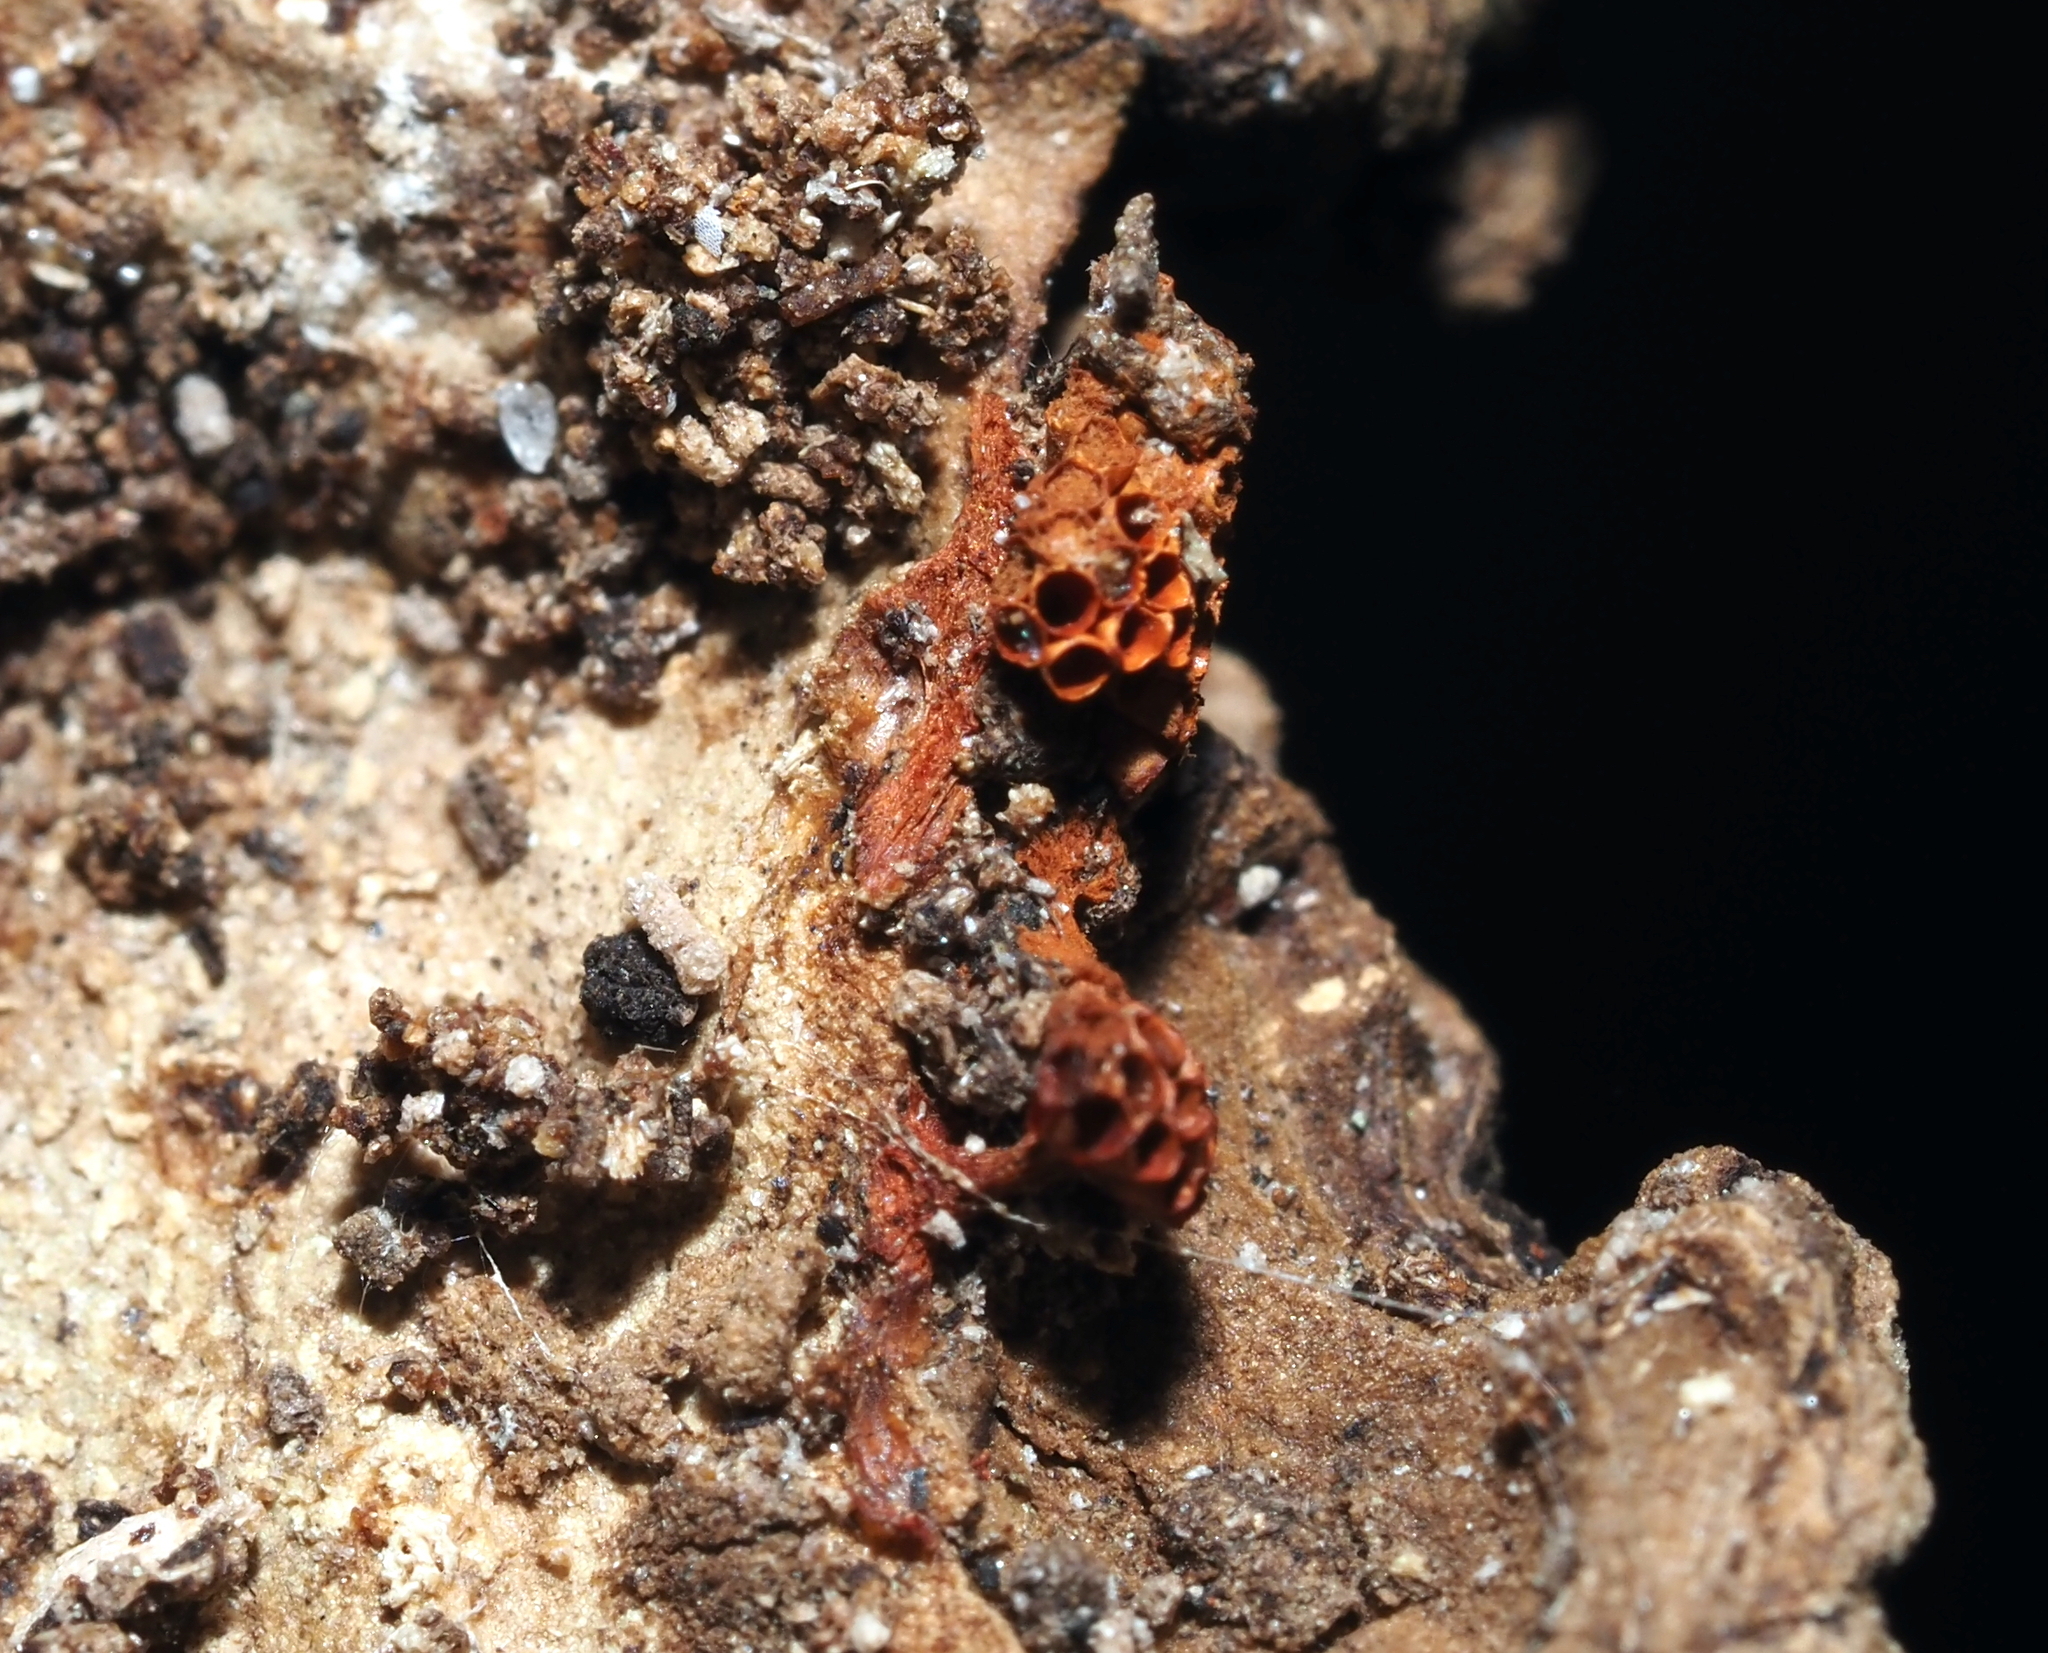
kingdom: Protozoa
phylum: Mycetozoa
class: Myxomycetes
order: Trichiales
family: Trichiaceae
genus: Metatrichia
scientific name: Metatrichia vesparia
